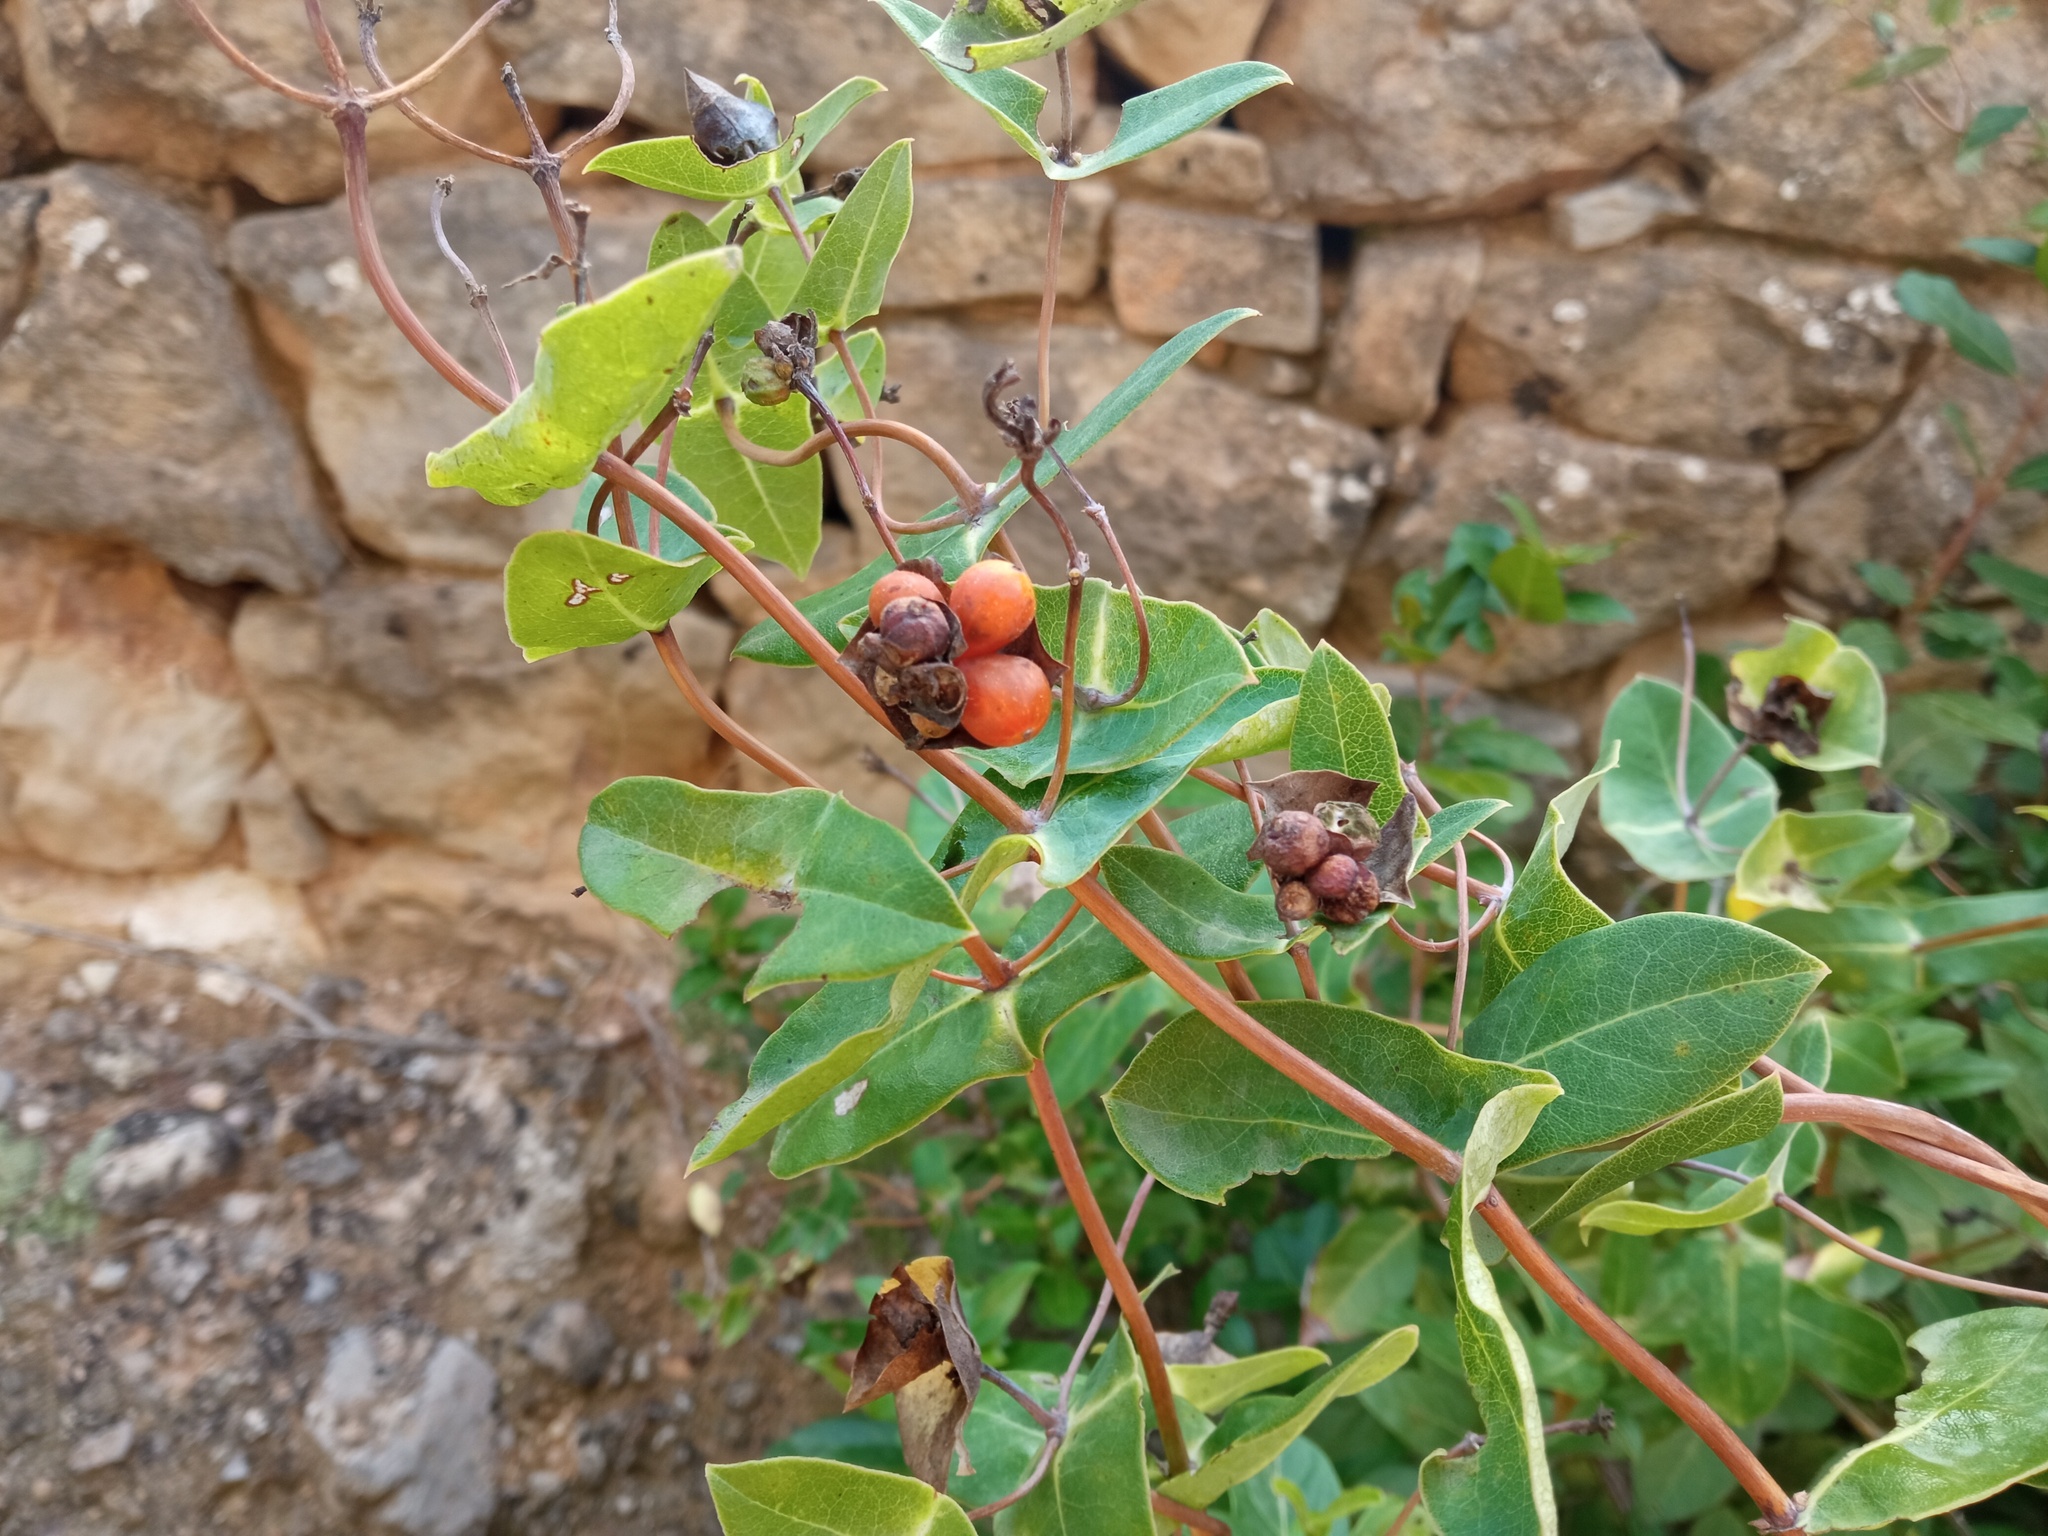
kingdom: Plantae
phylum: Tracheophyta
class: Magnoliopsida
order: Dipsacales
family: Caprifoliaceae
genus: Lonicera
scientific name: Lonicera implexa
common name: Minorca honeysuckle
